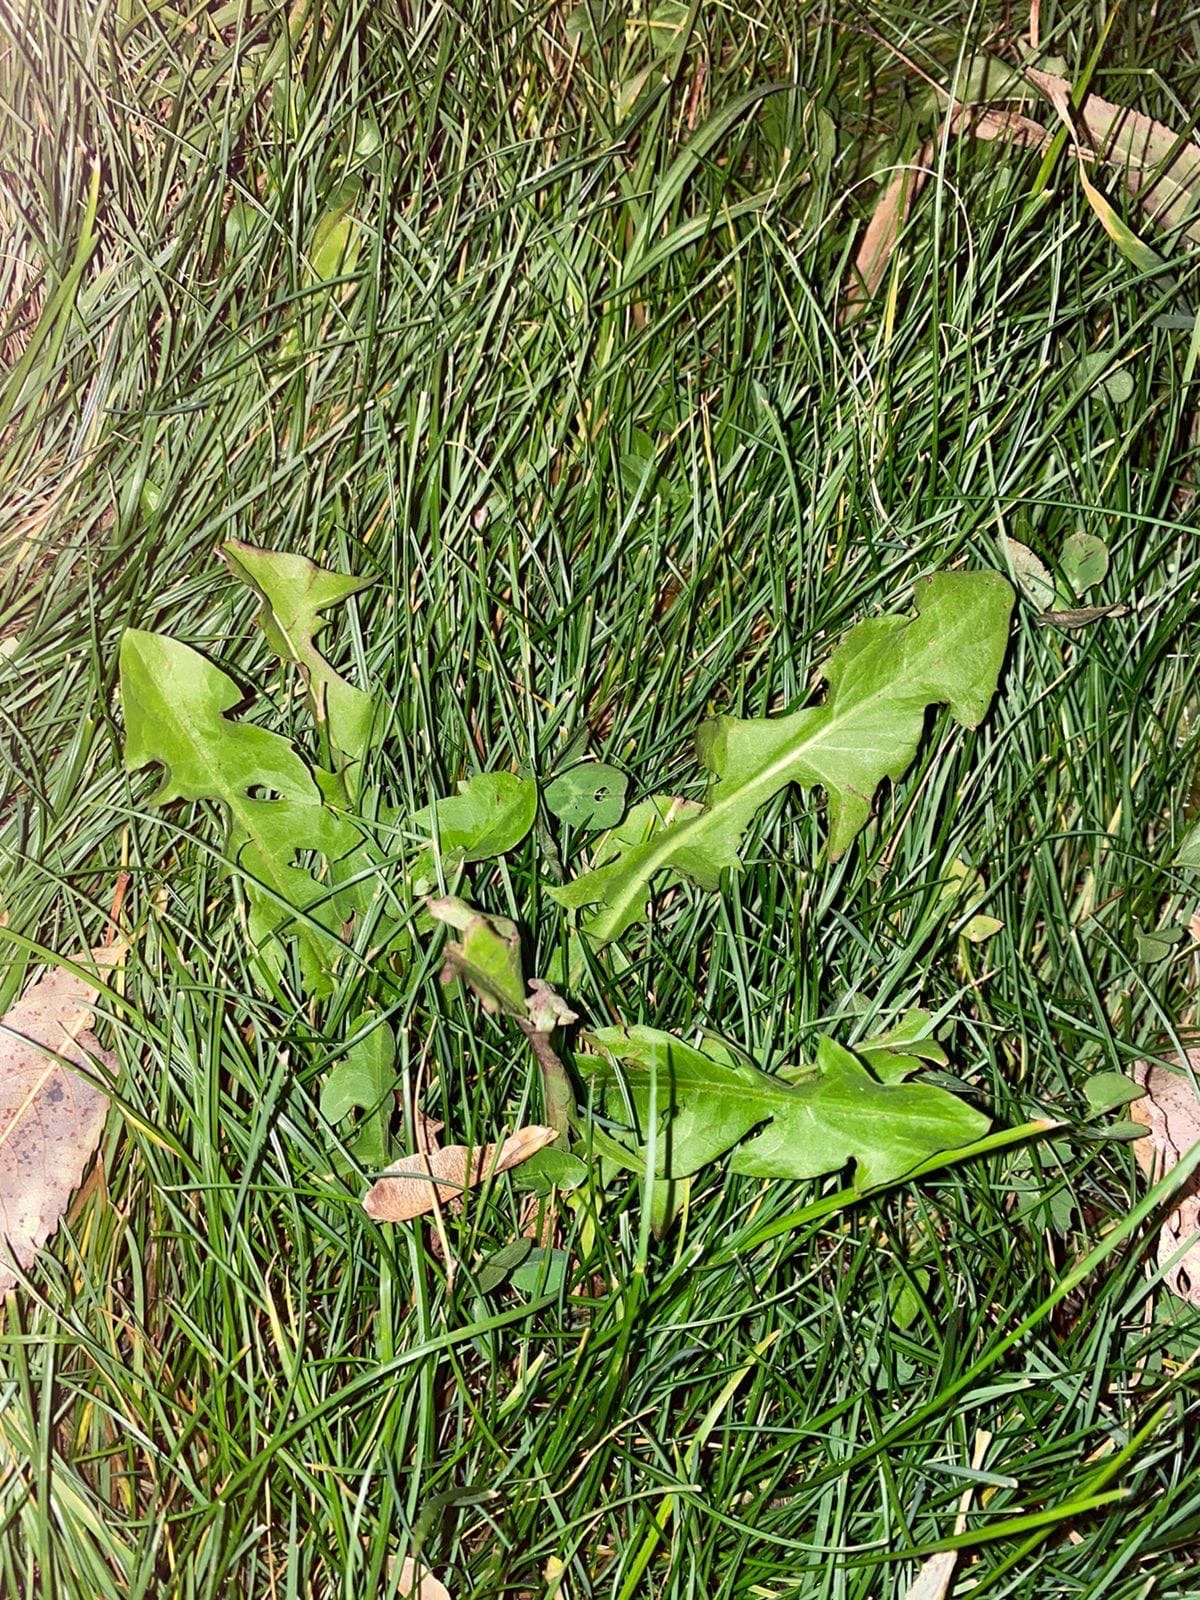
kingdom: Plantae
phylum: Tracheophyta
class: Magnoliopsida
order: Asterales
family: Asteraceae
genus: Taraxacum
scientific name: Taraxacum officinale
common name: Common dandelion
